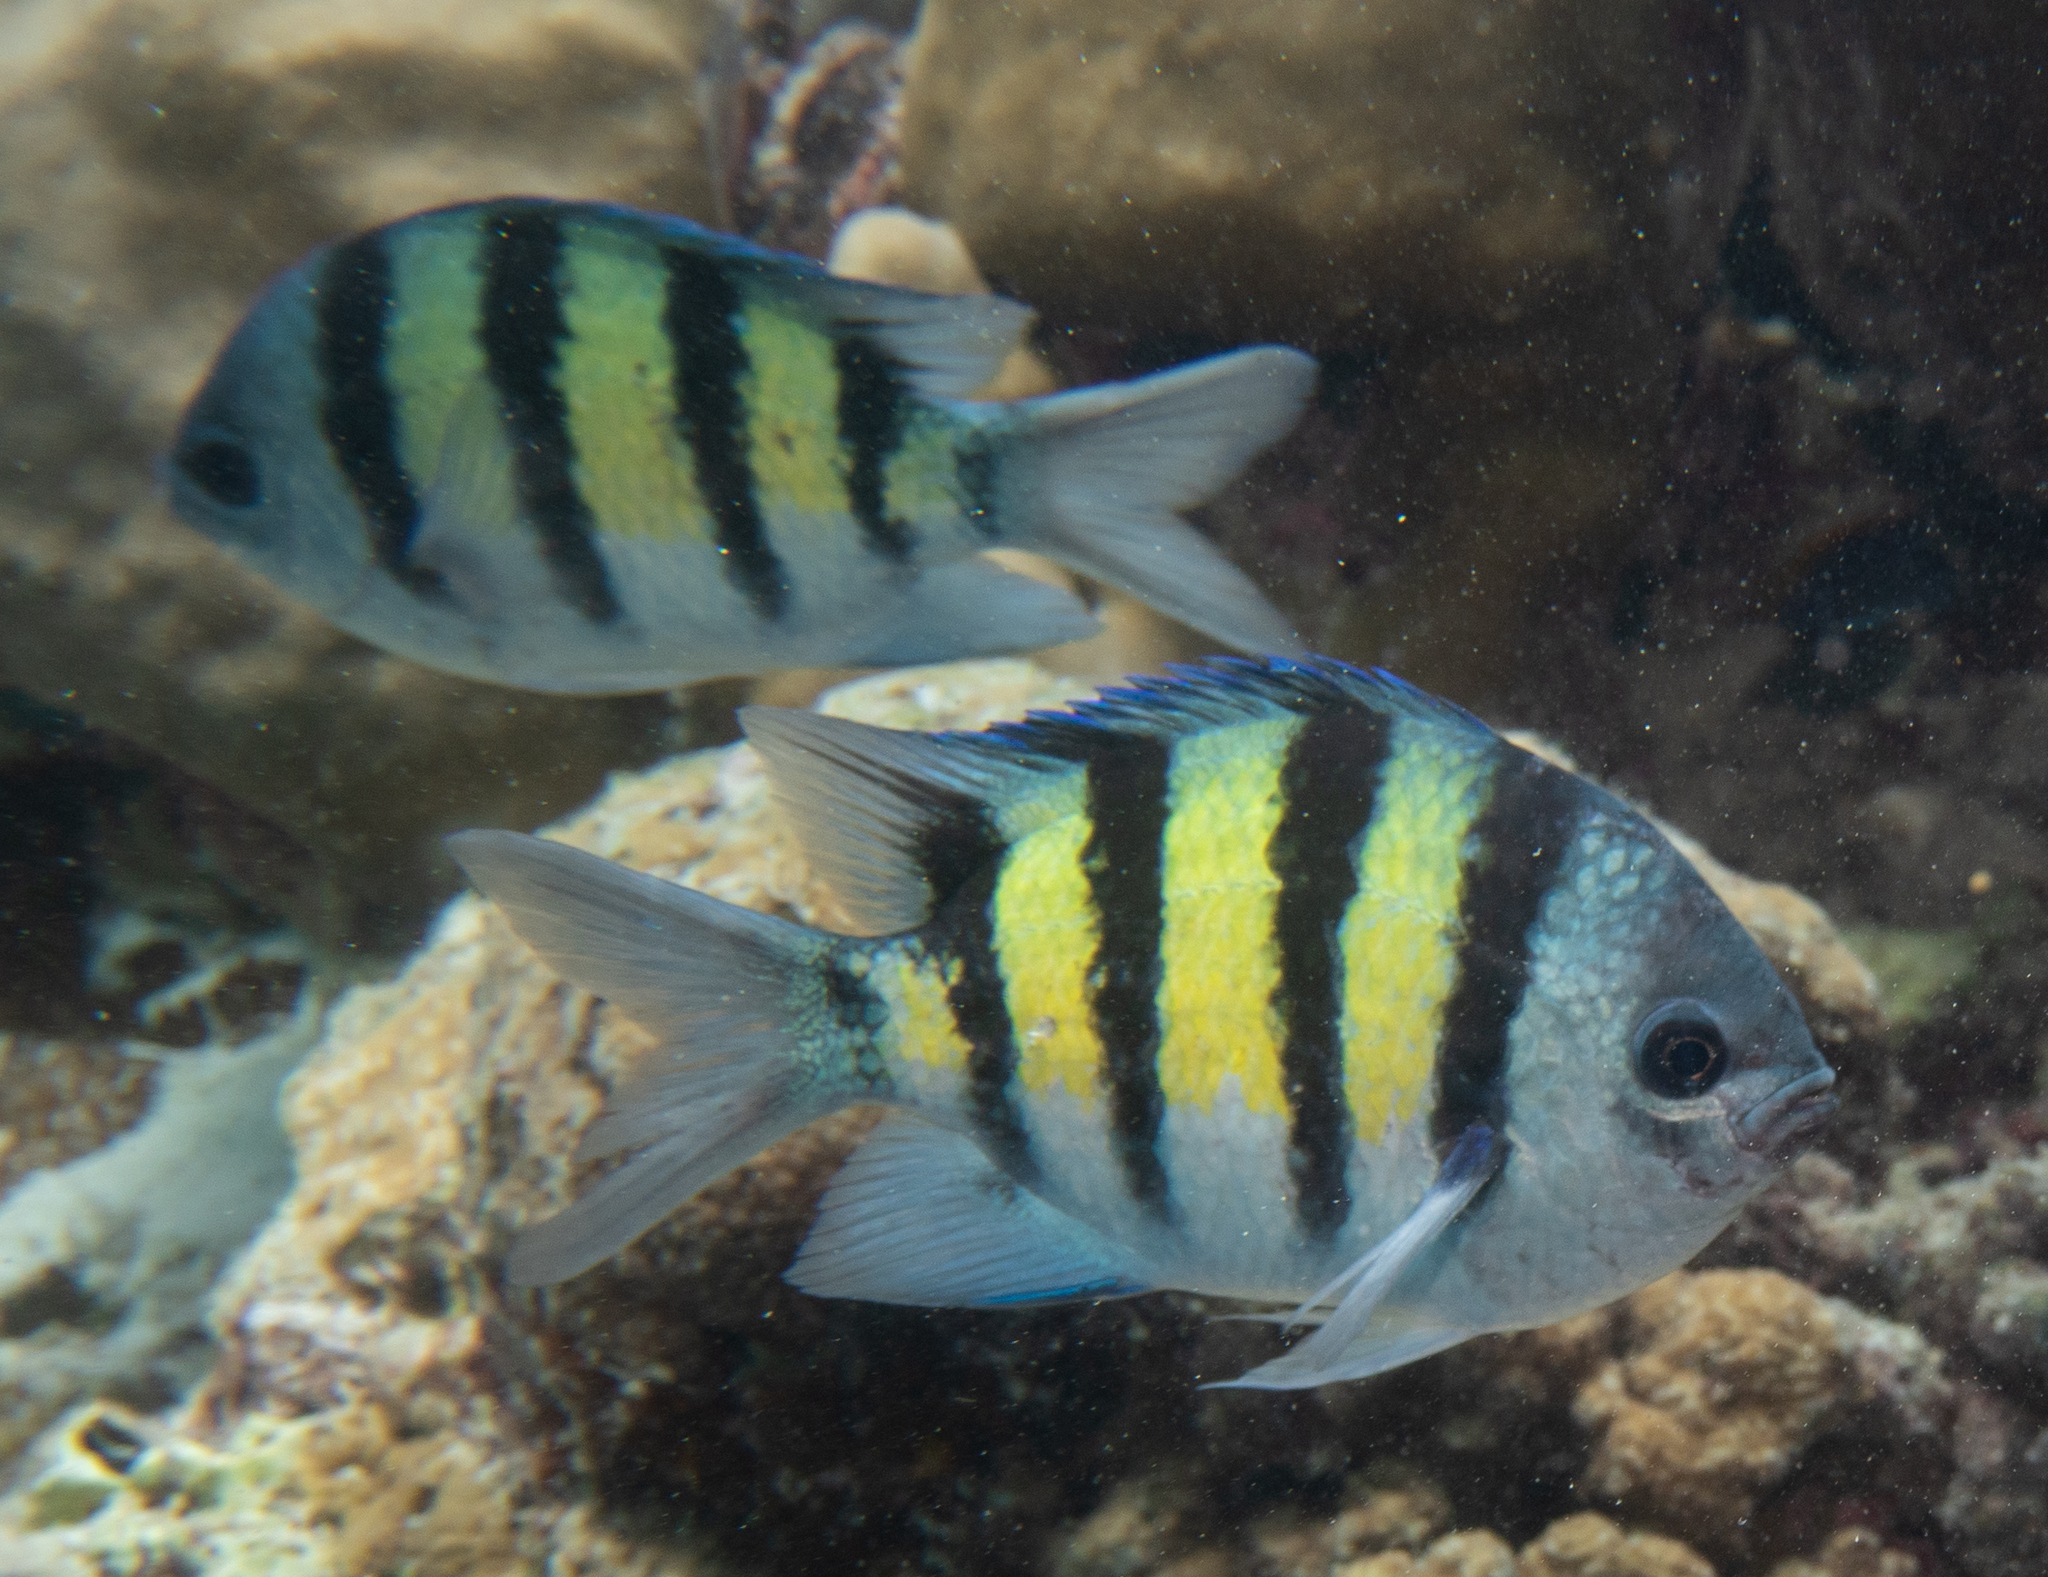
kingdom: Animalia
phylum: Chordata
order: Perciformes
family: Pomacentridae
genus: Abudefduf
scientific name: Abudefduf vaigiensis
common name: Indo-pacific sergeant
